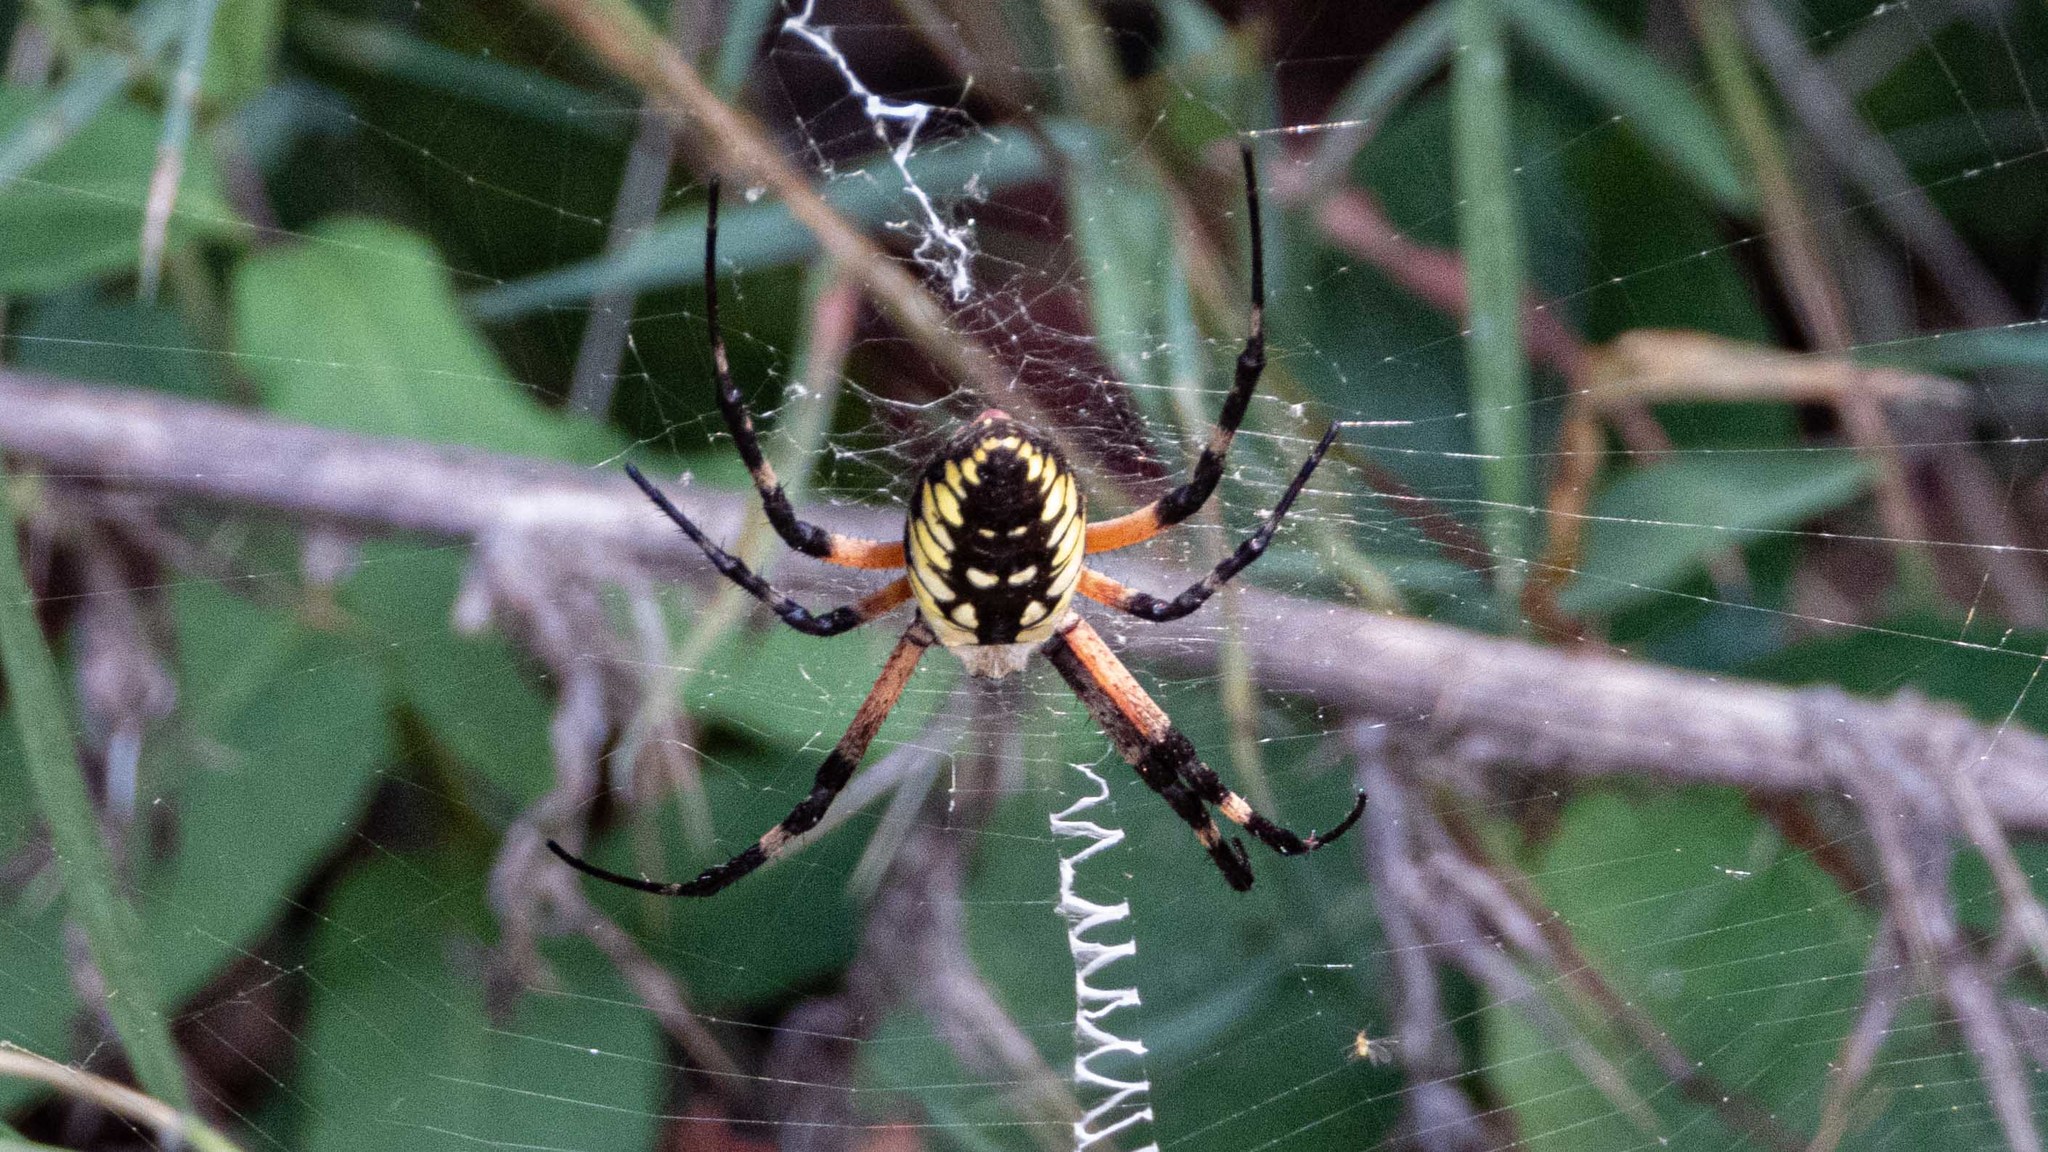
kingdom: Animalia
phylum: Arthropoda
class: Arachnida
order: Araneae
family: Araneidae
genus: Argiope
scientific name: Argiope aurantia
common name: Orb weavers
